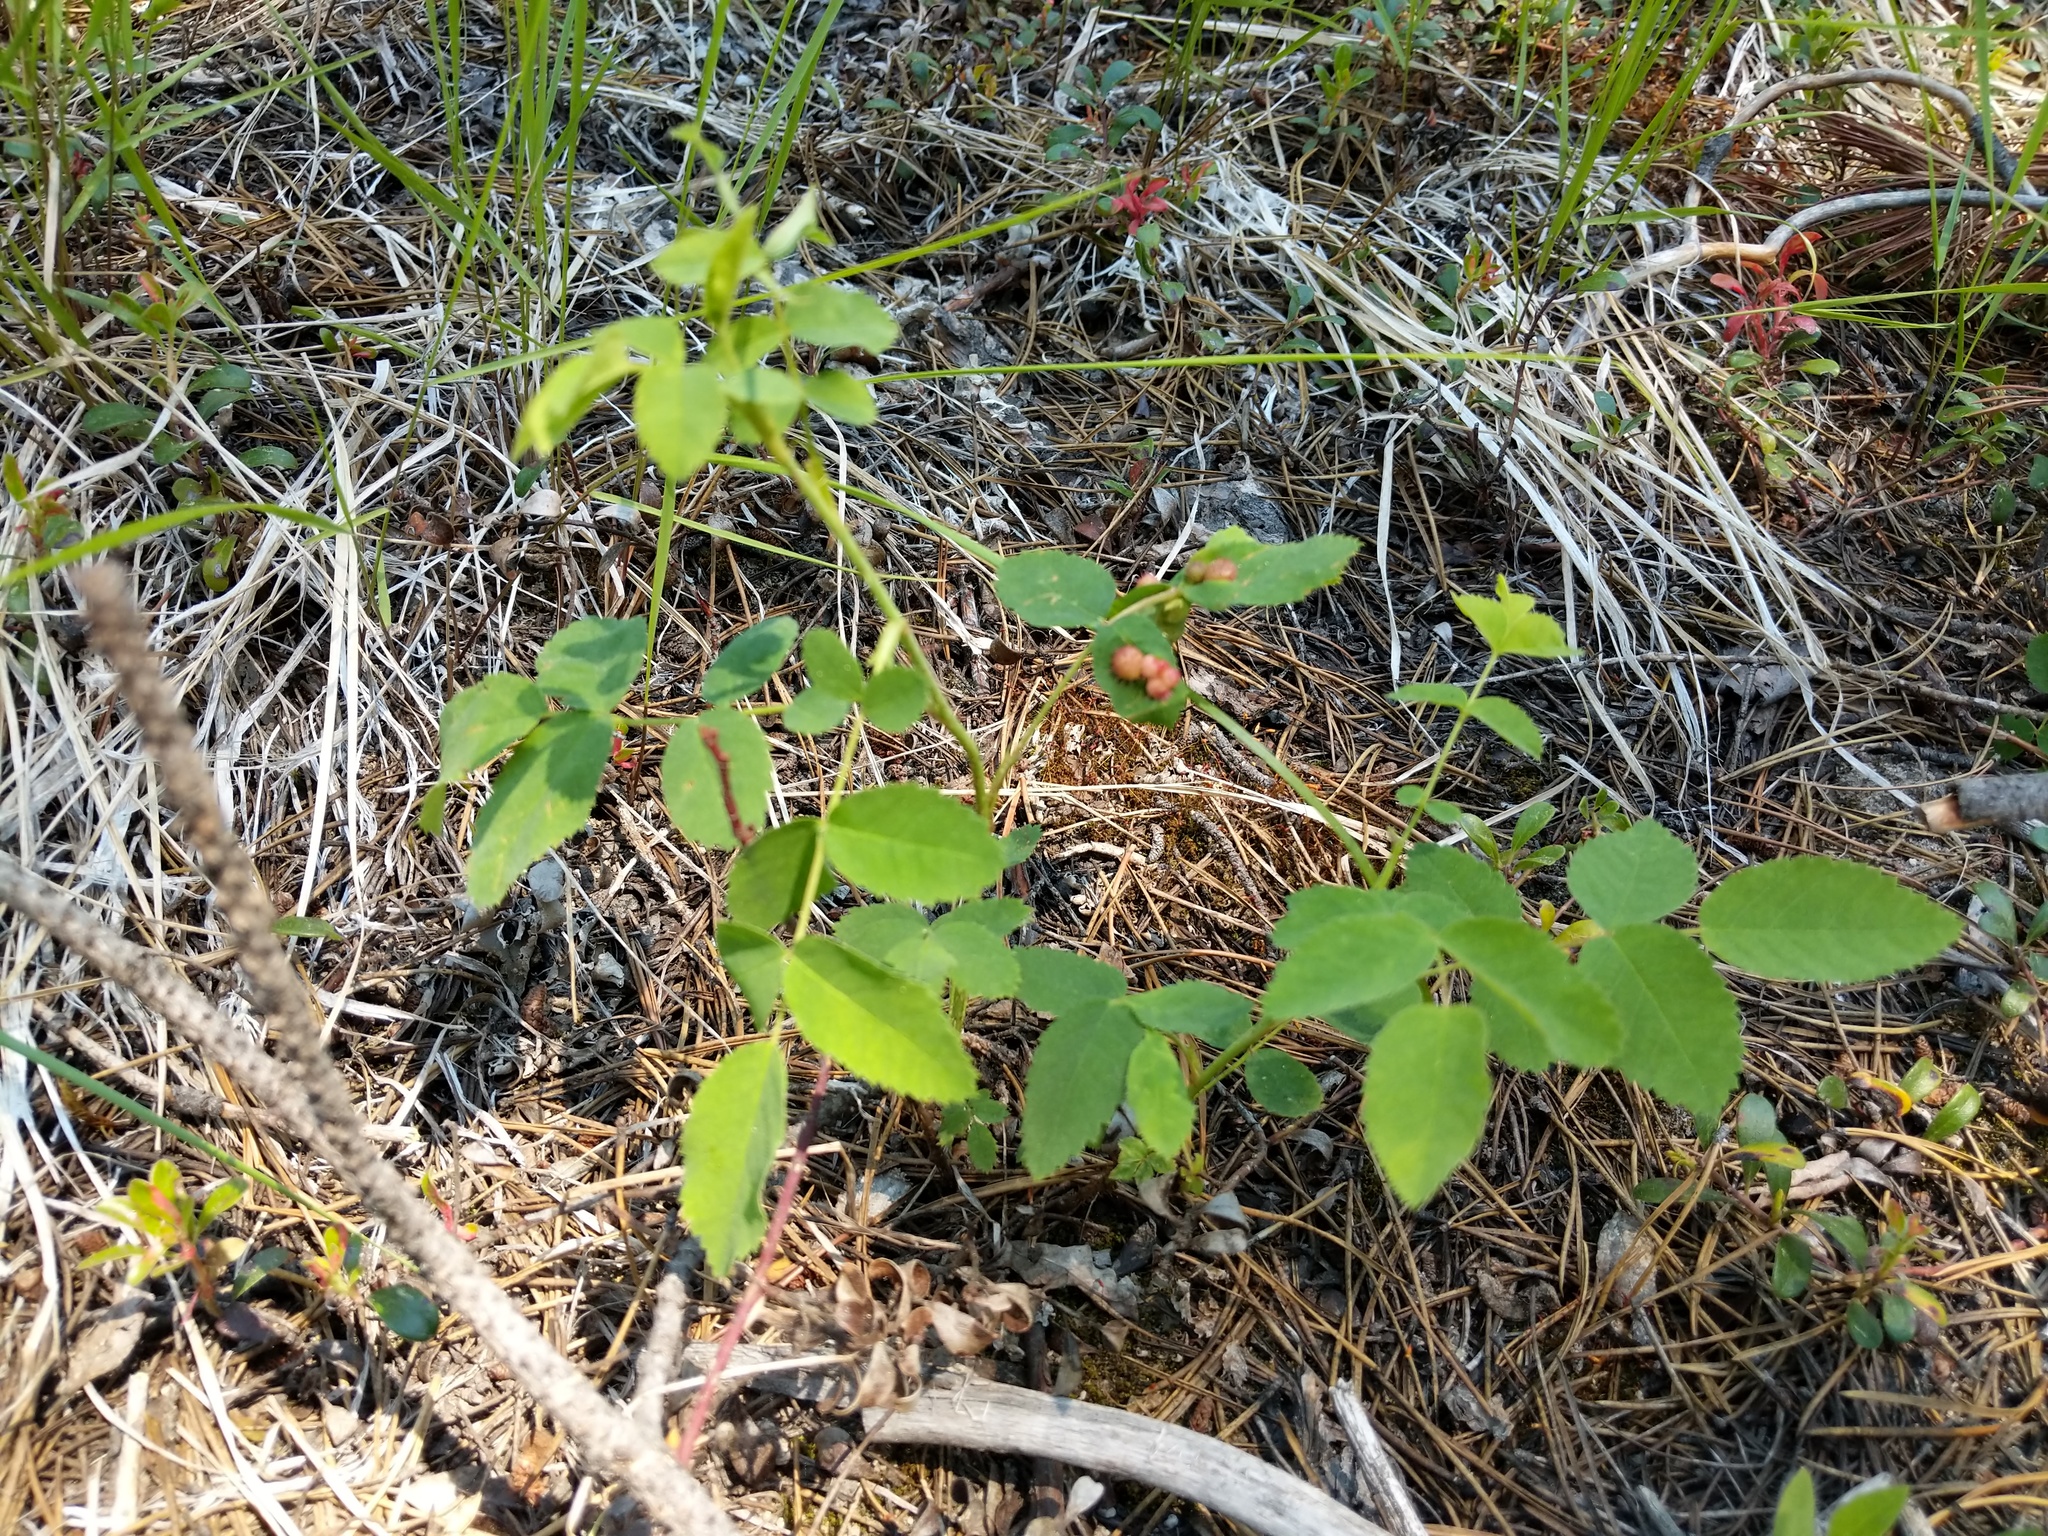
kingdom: Animalia
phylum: Arthropoda
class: Insecta
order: Hymenoptera
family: Cynipidae
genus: Diplolepis
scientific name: Diplolepis polita
